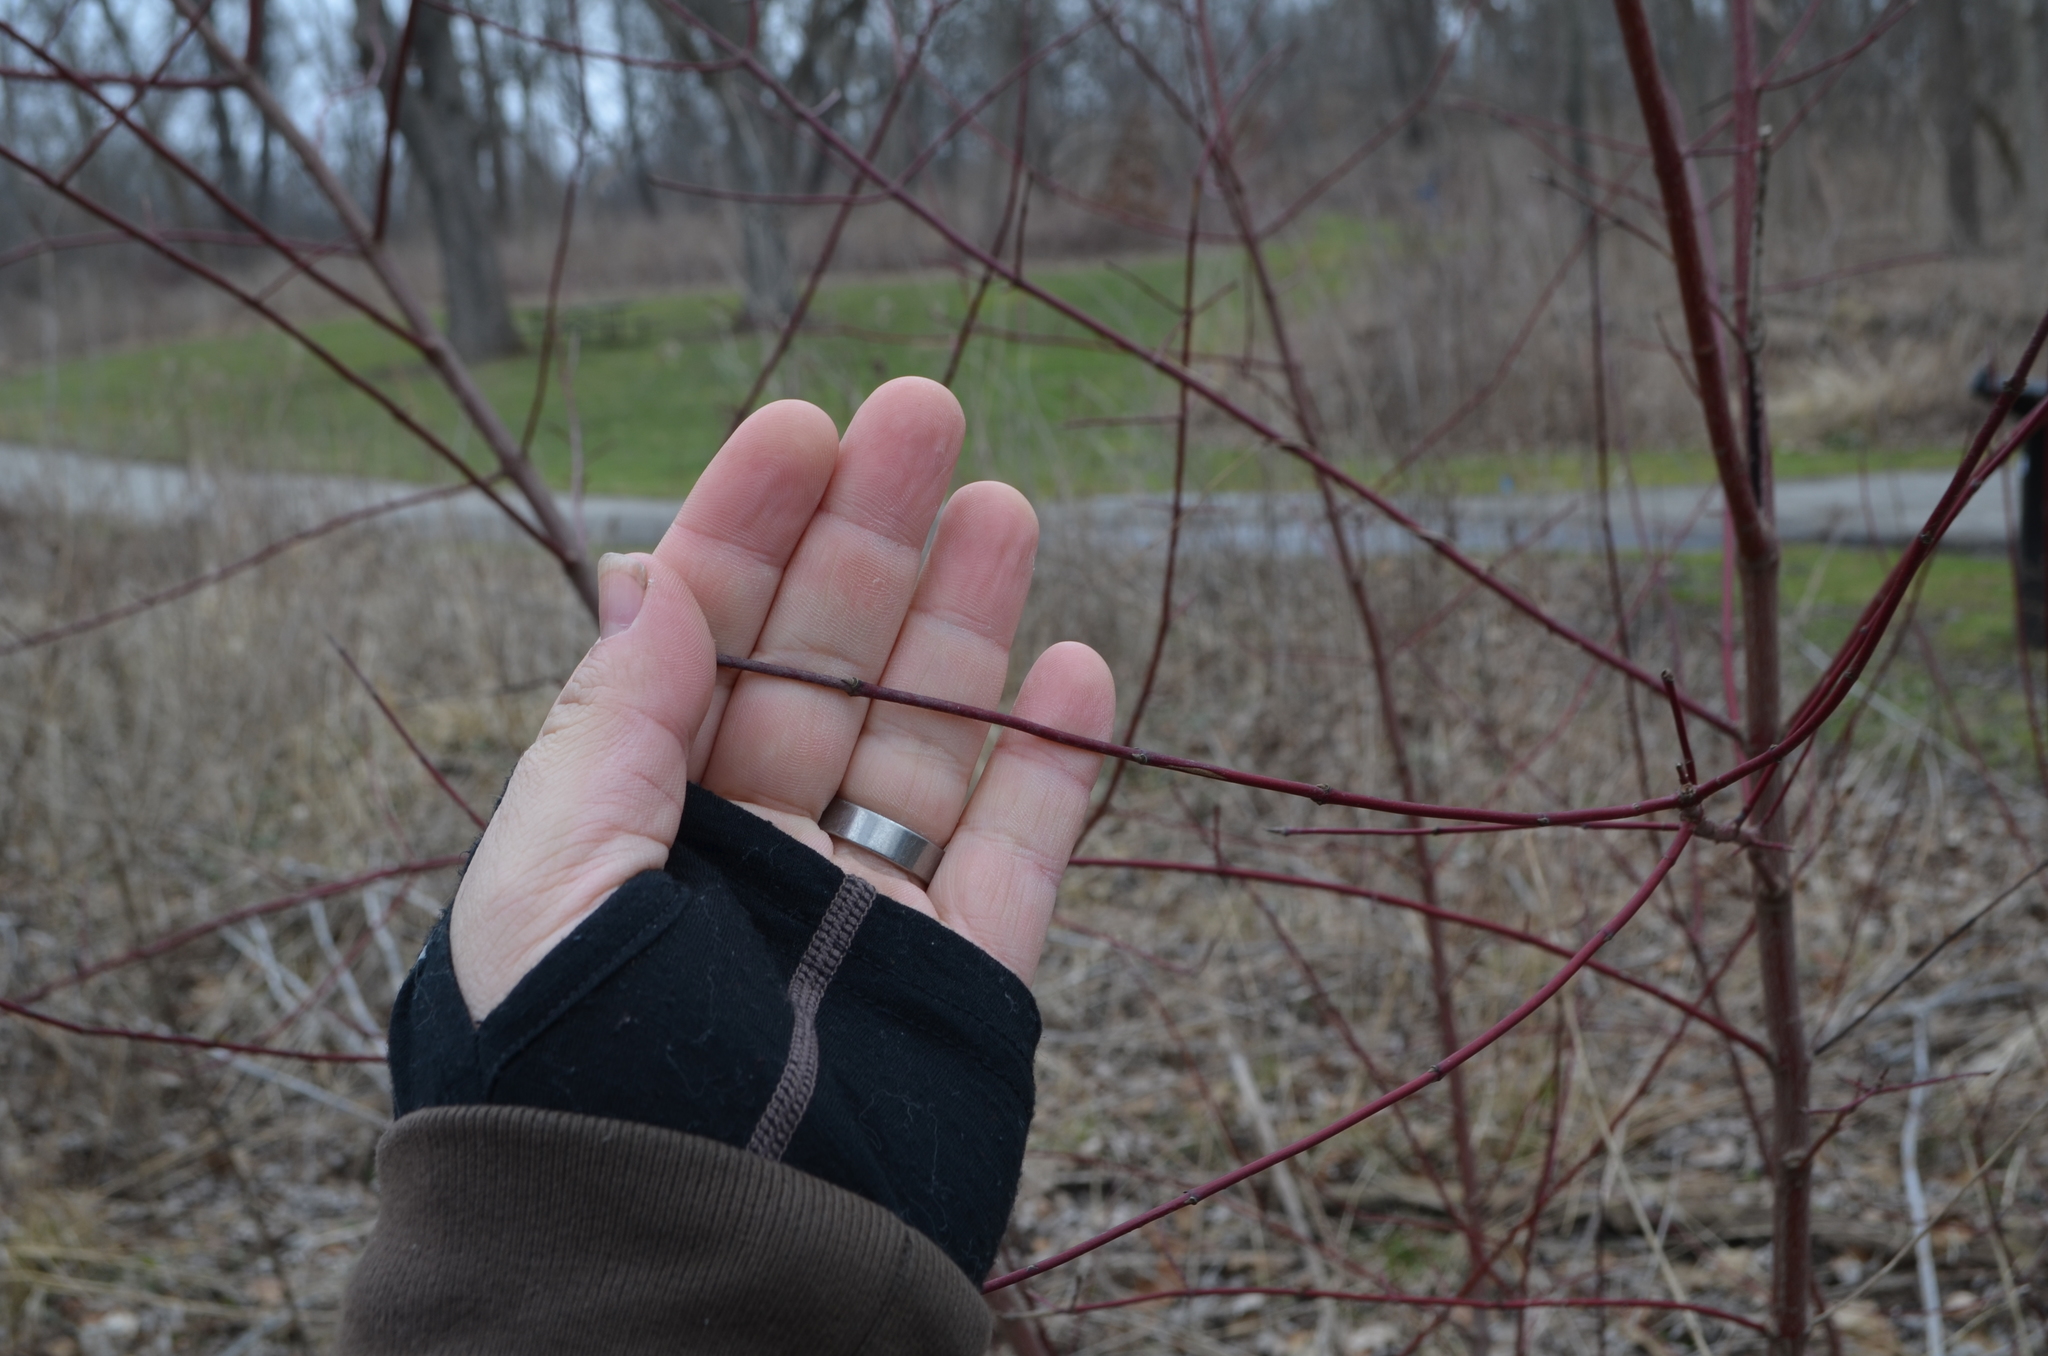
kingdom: Plantae
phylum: Tracheophyta
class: Magnoliopsida
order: Cornales
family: Cornaceae
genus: Cornus
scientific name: Cornus sericea
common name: Red-osier dogwood
